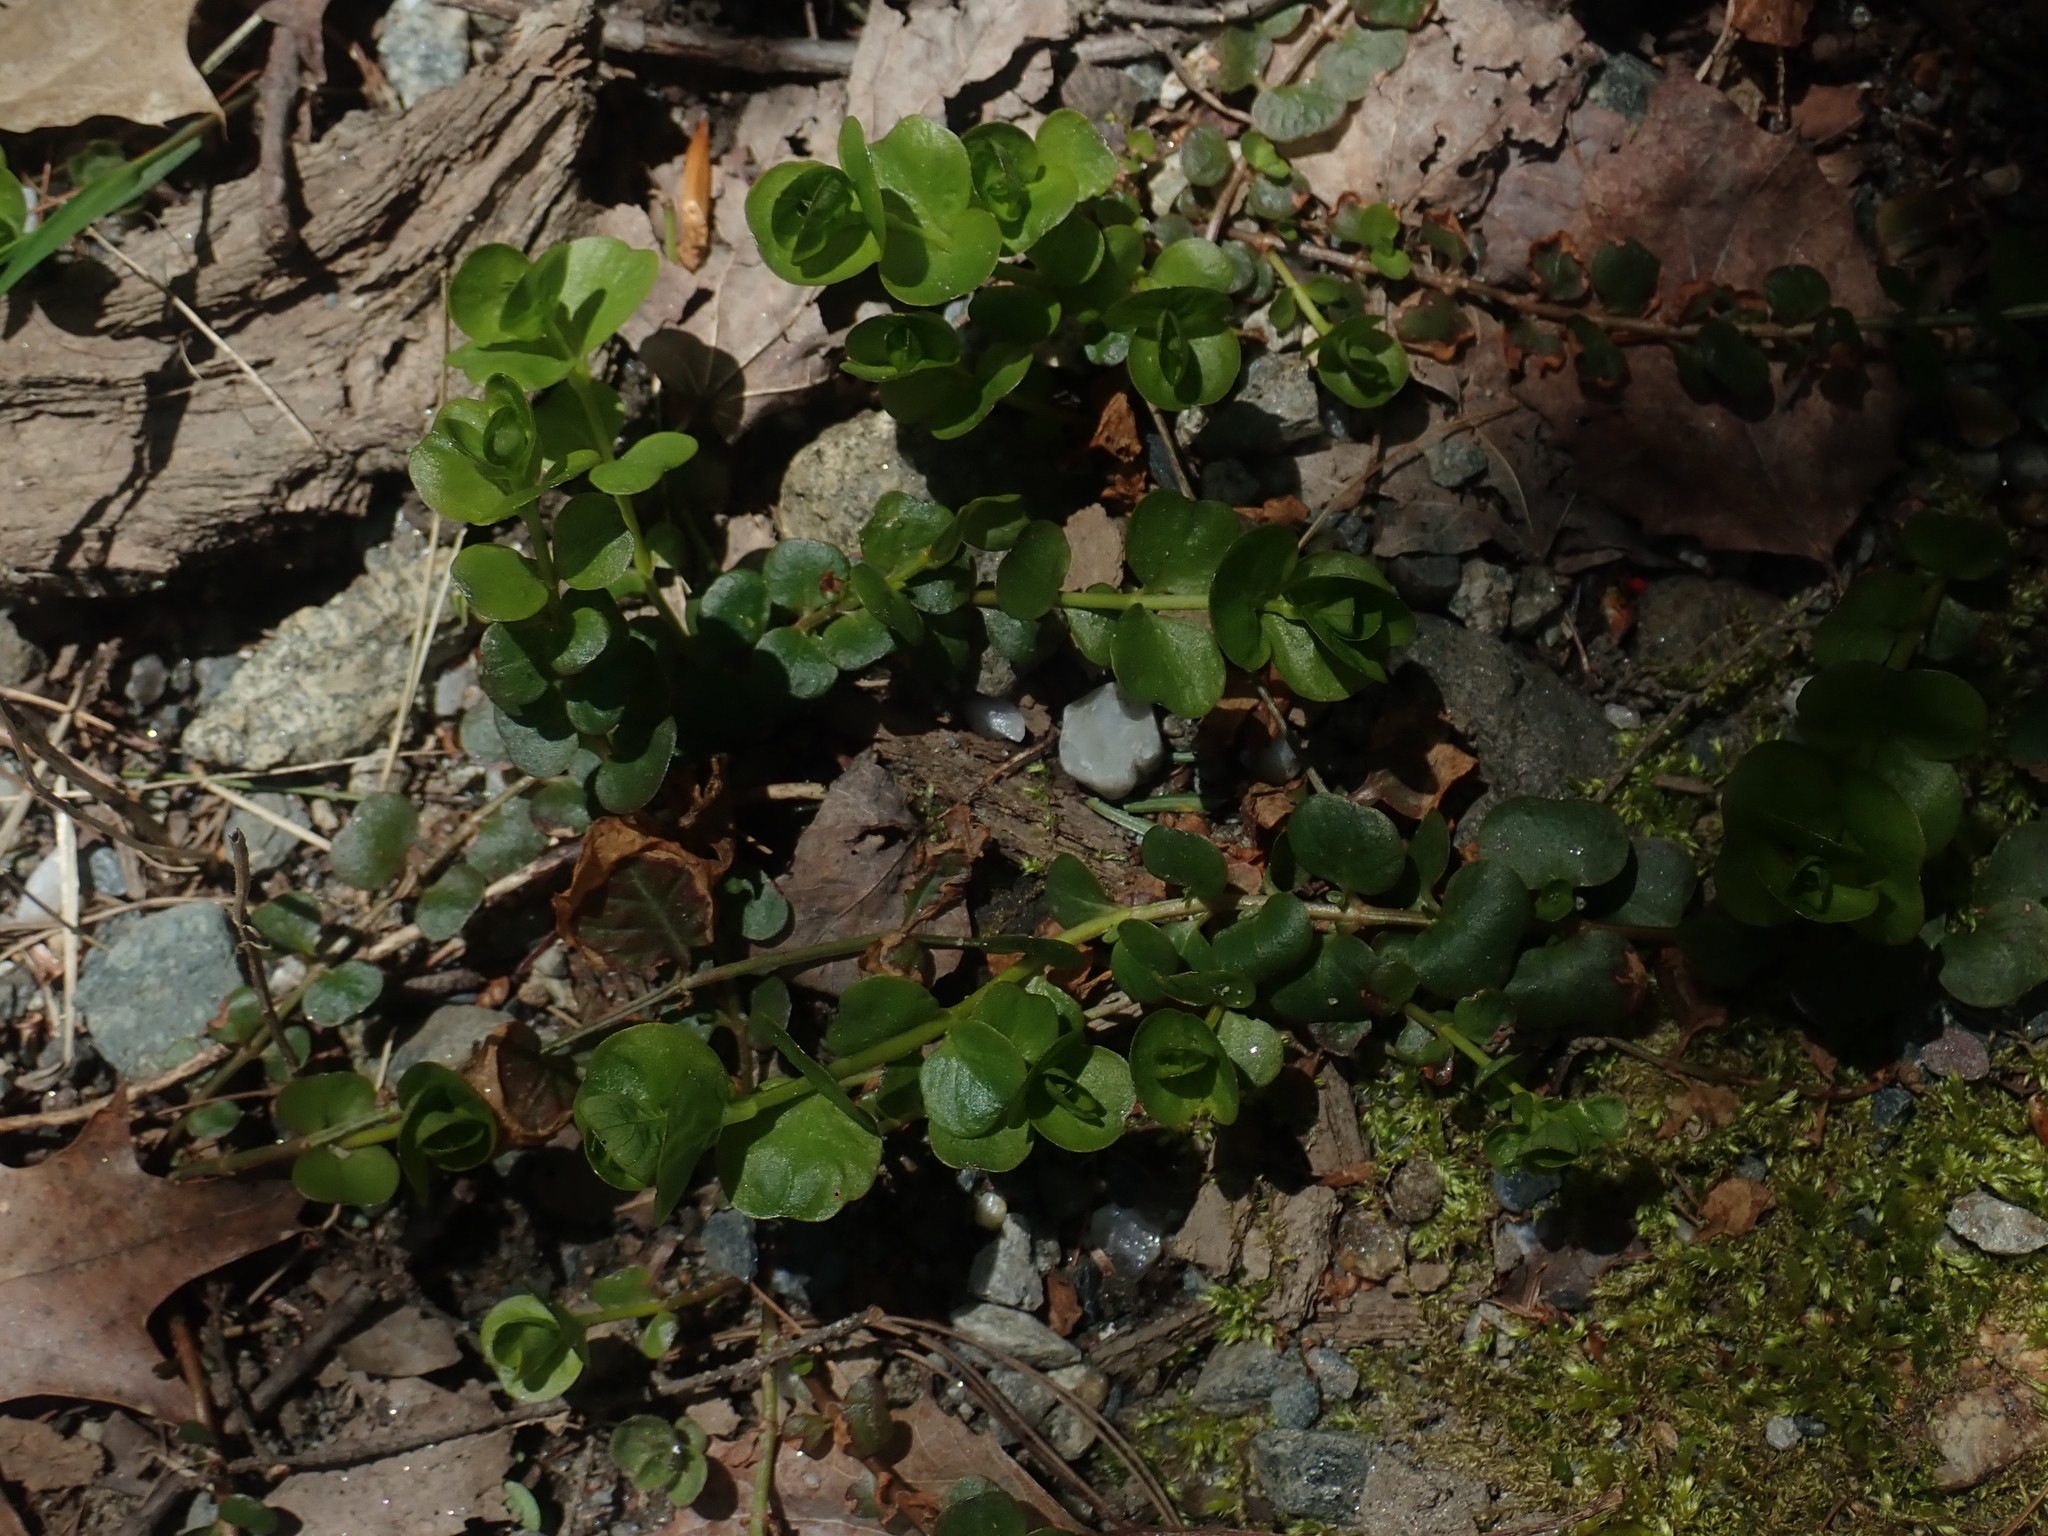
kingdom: Plantae
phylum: Tracheophyta
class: Magnoliopsida
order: Ericales
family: Primulaceae
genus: Lysimachia
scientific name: Lysimachia nummularia
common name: Moneywort
